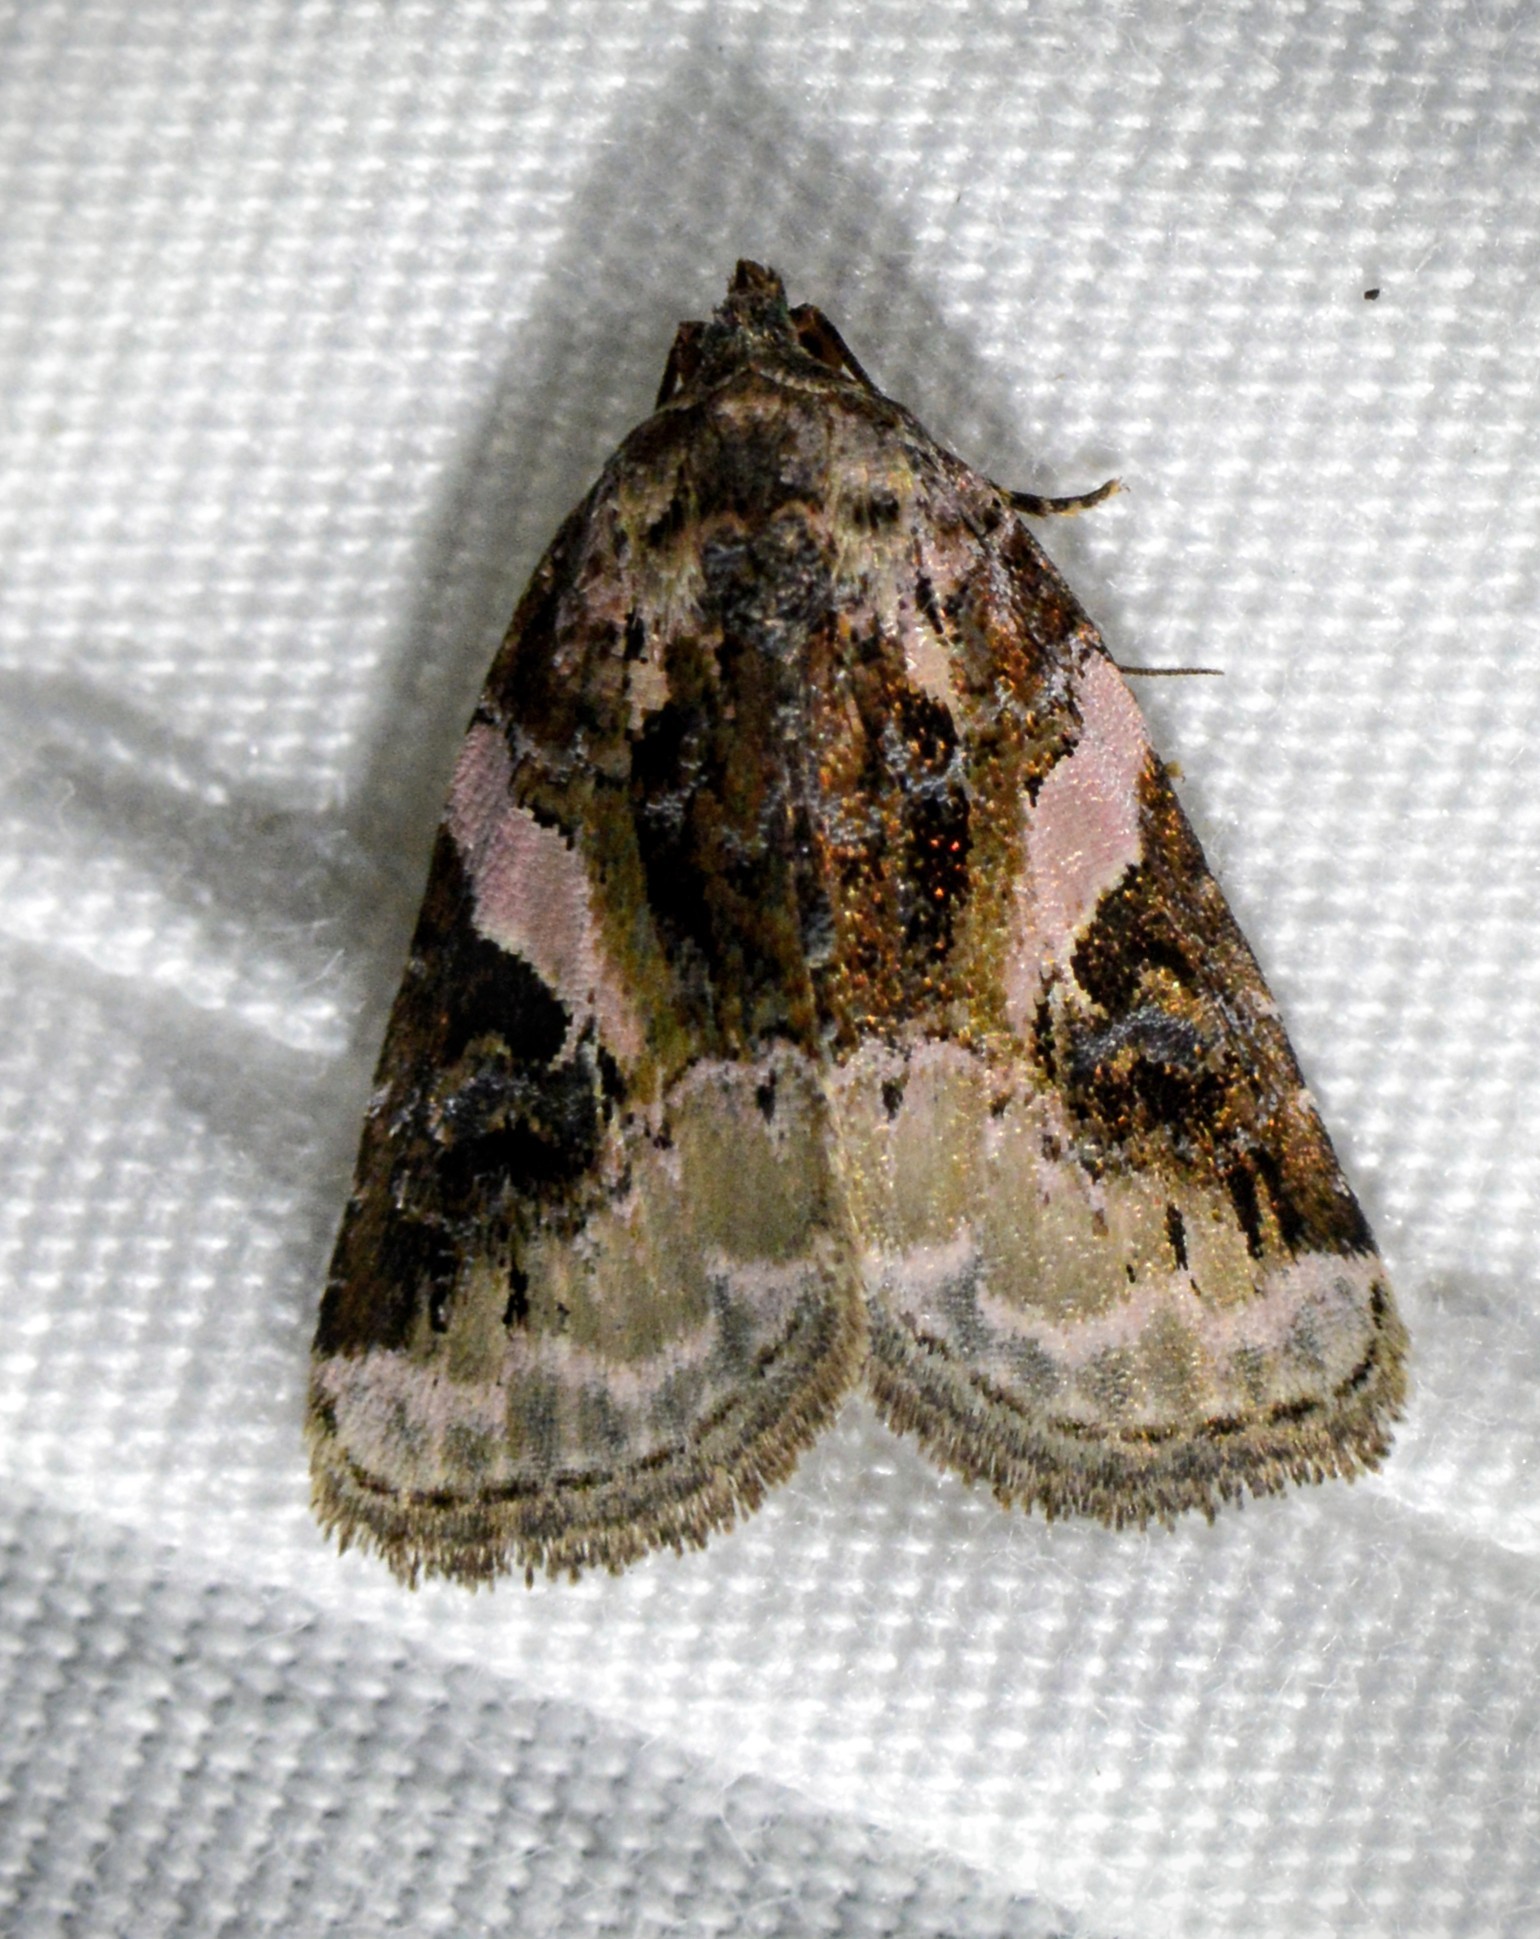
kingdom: Animalia
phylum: Arthropoda
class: Insecta
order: Lepidoptera
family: Noctuidae
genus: Pseudeustrotia
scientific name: Pseudeustrotia carneola
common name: Pink-barred lithacodia moth
